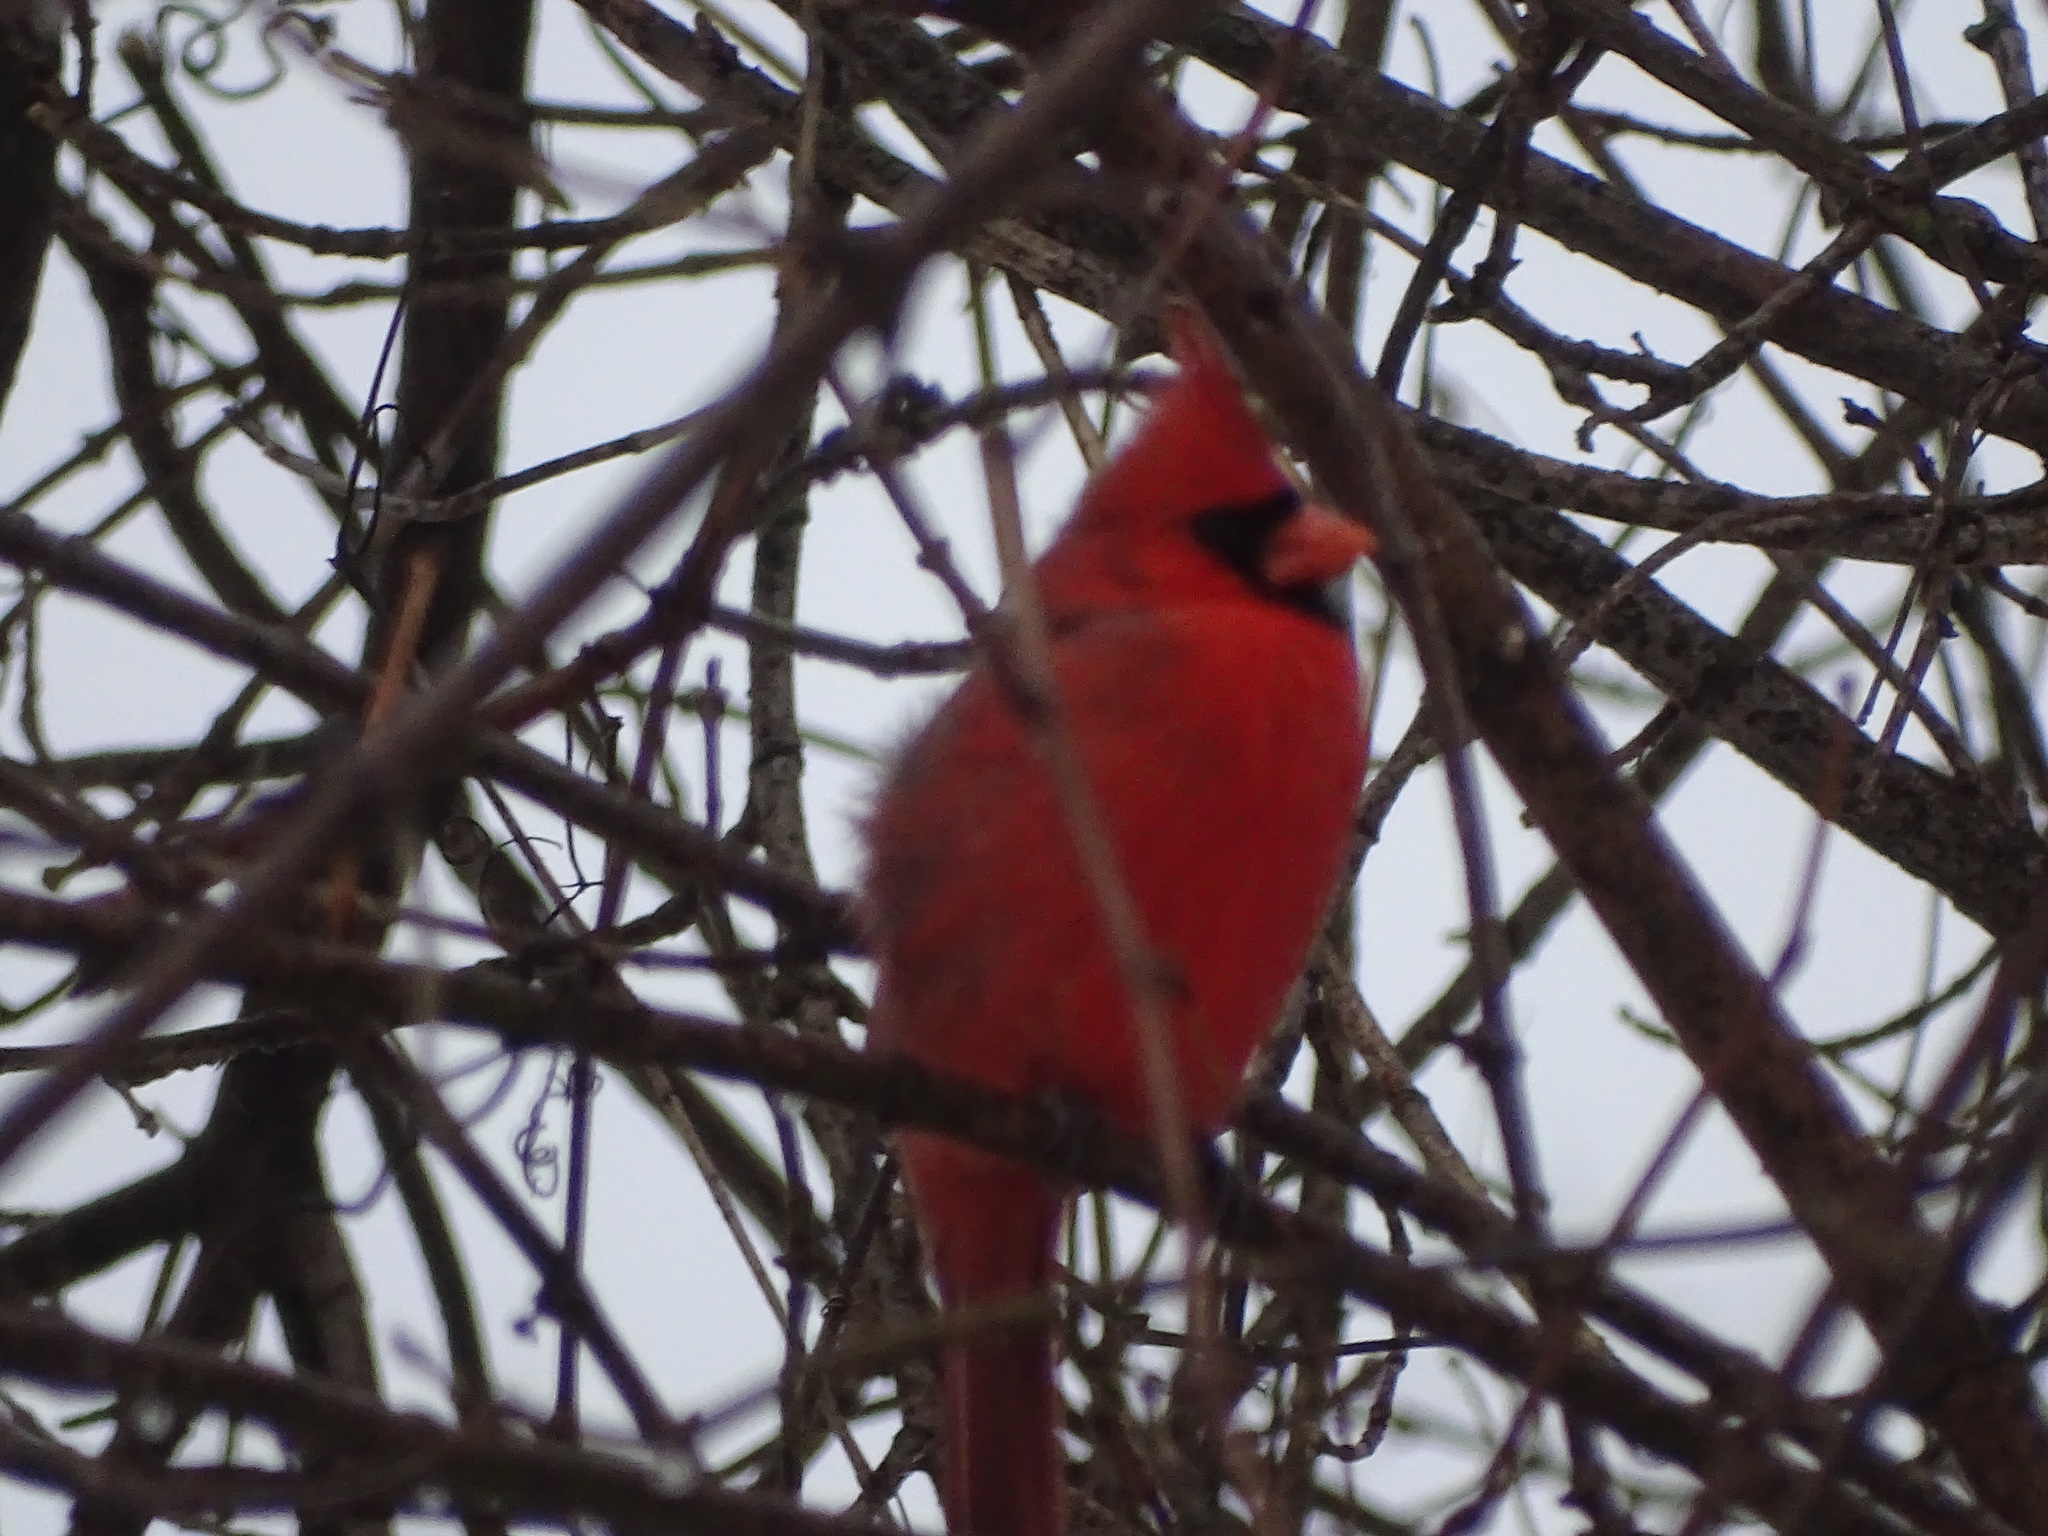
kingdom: Animalia
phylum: Chordata
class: Aves
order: Passeriformes
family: Cardinalidae
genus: Cardinalis
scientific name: Cardinalis cardinalis
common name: Northern cardinal
